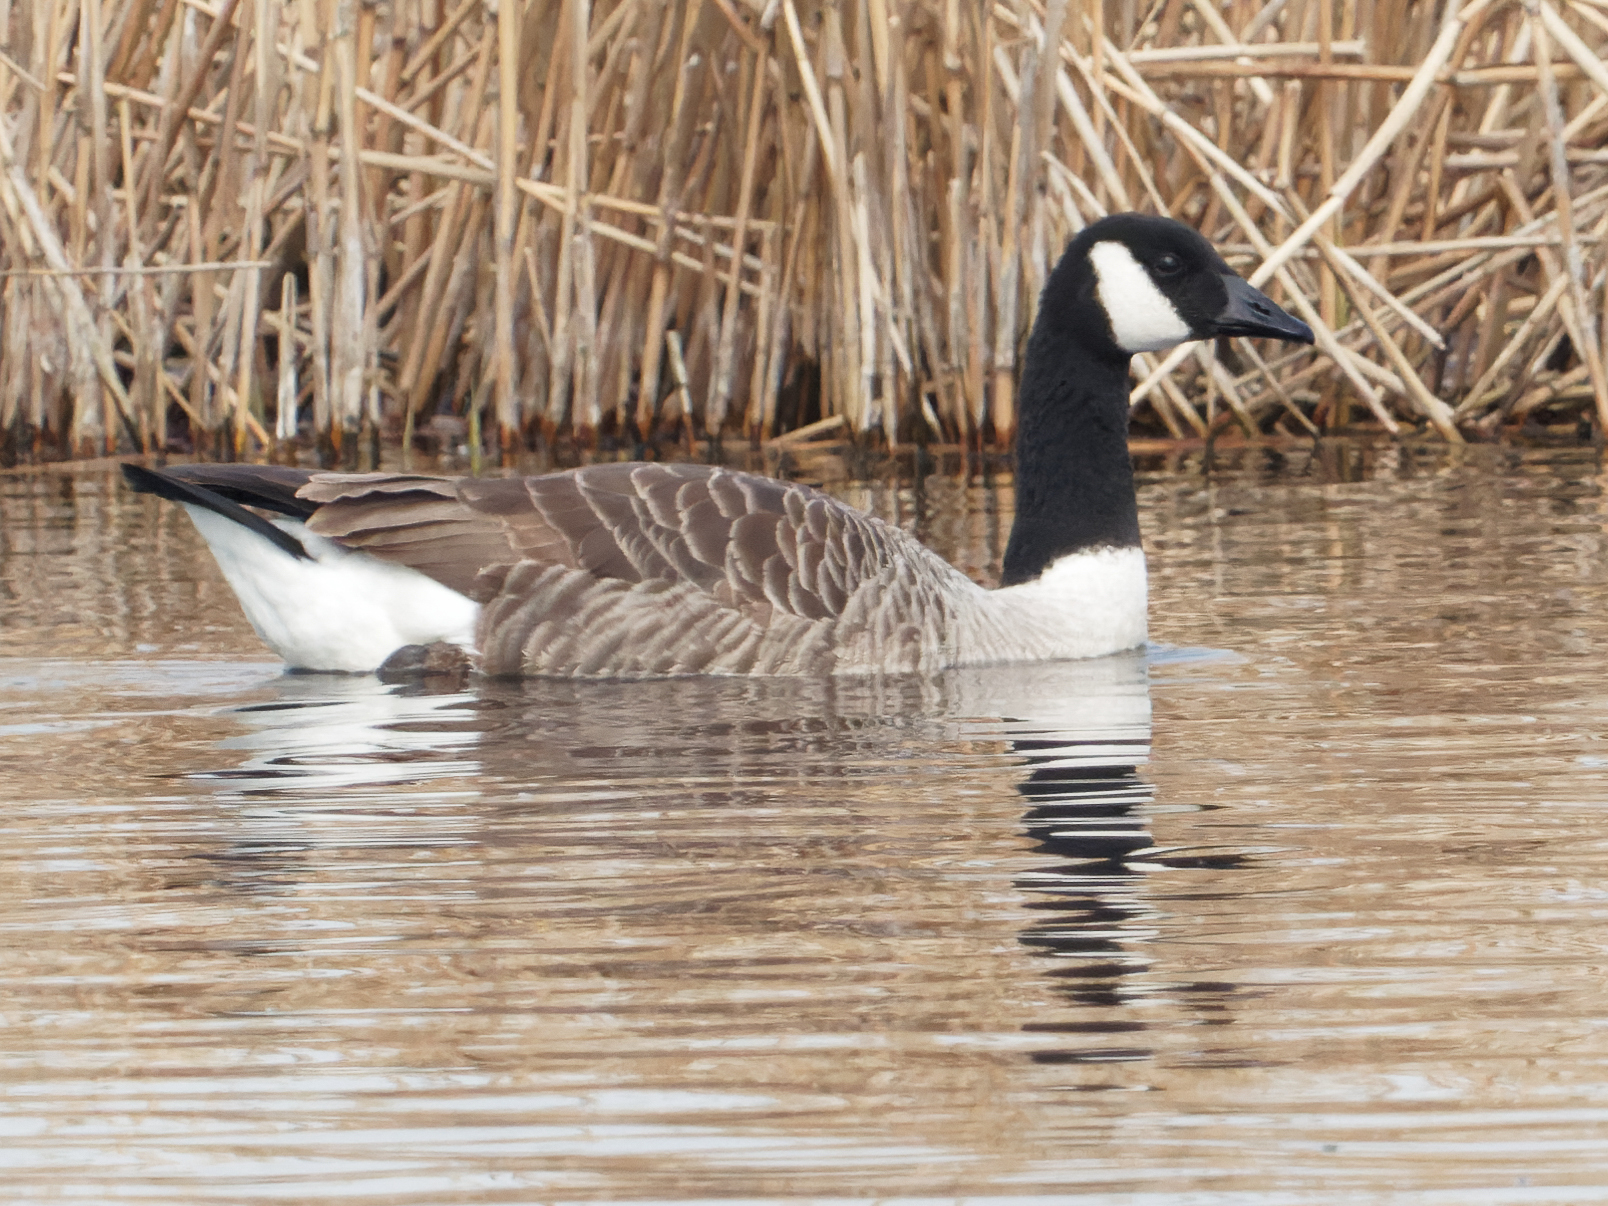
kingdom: Animalia
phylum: Chordata
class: Aves
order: Anseriformes
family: Anatidae
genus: Branta
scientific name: Branta canadensis
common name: Canada goose
